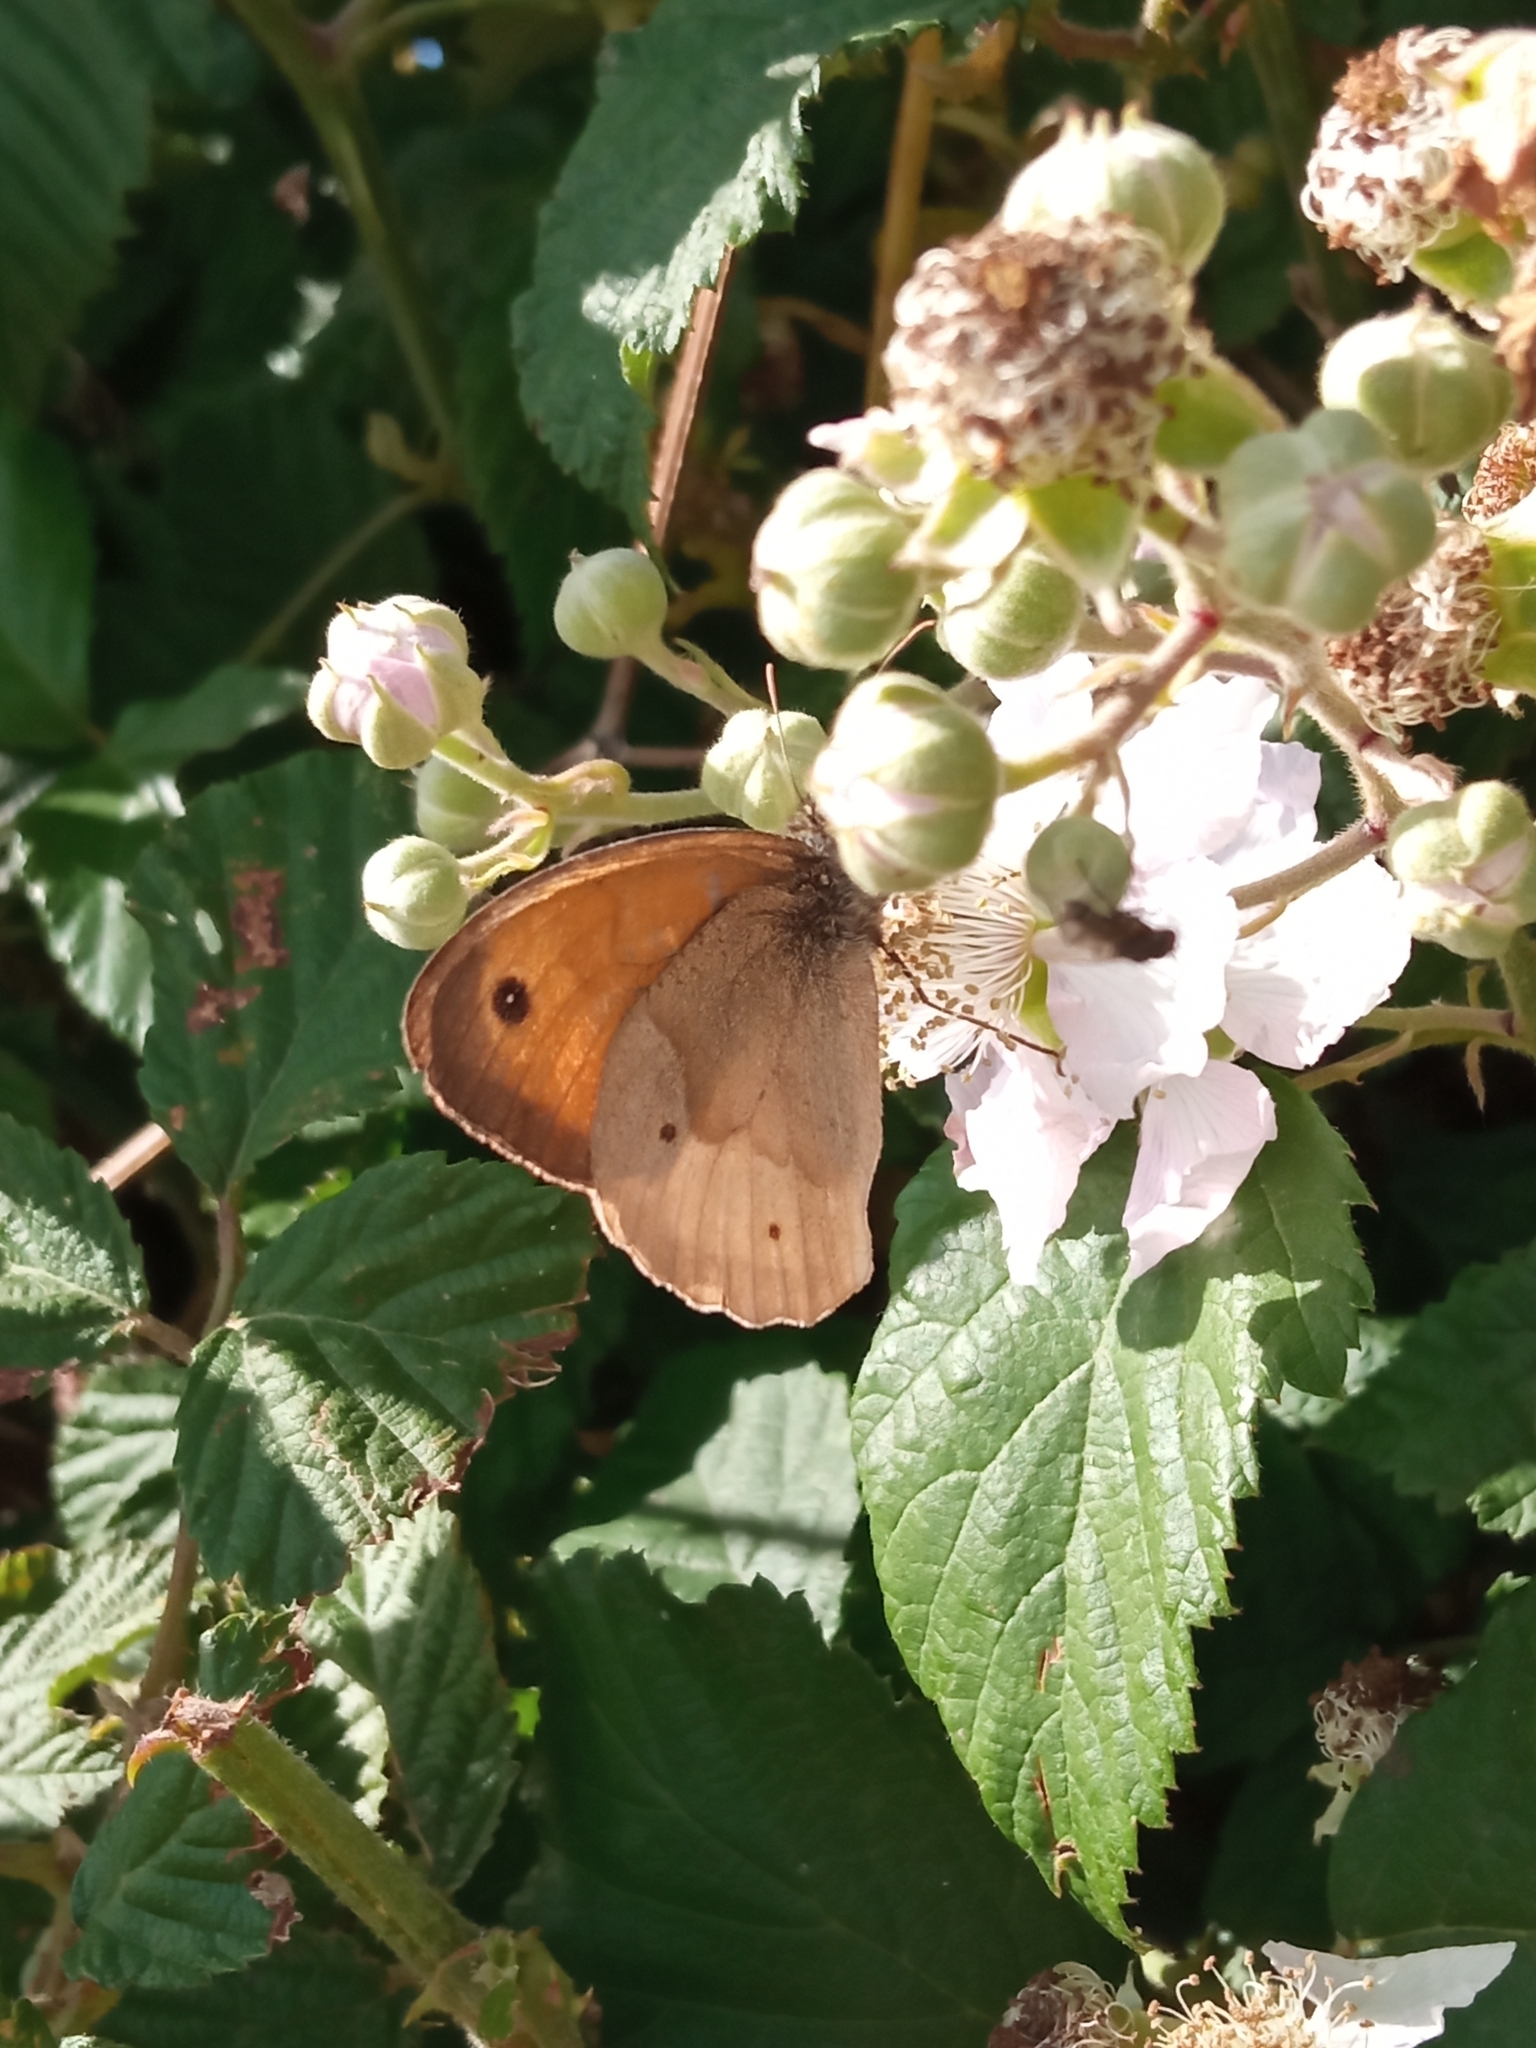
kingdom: Animalia
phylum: Arthropoda
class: Insecta
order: Lepidoptera
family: Nymphalidae
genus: Maniola
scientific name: Maniola jurtina
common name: Meadow brown
